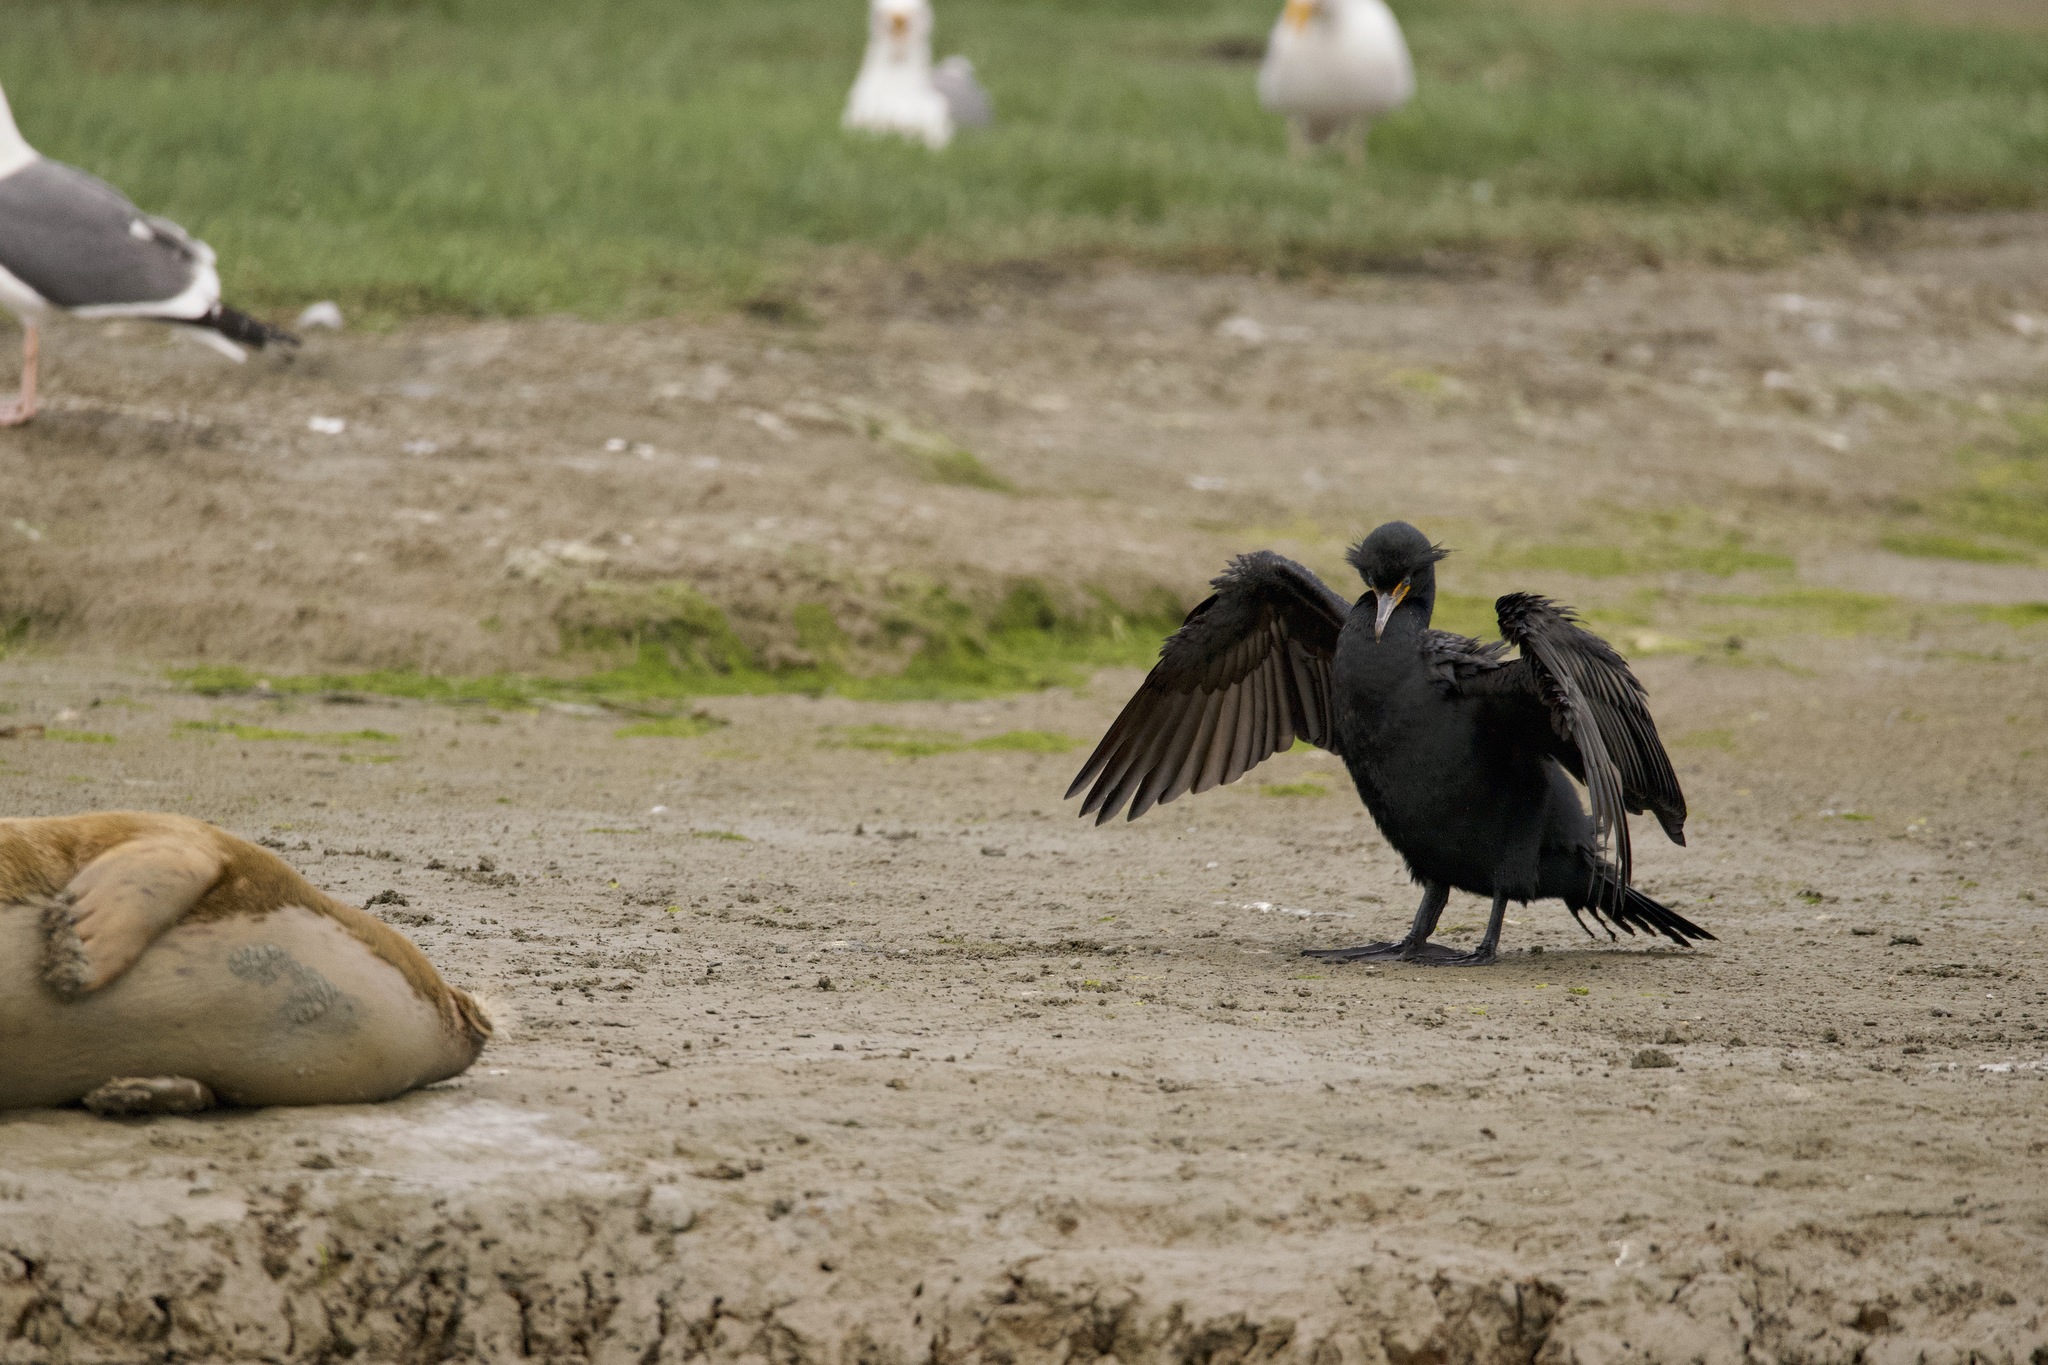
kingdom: Animalia
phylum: Chordata
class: Aves
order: Suliformes
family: Phalacrocoracidae
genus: Phalacrocorax
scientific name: Phalacrocorax auritus
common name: Double-crested cormorant
